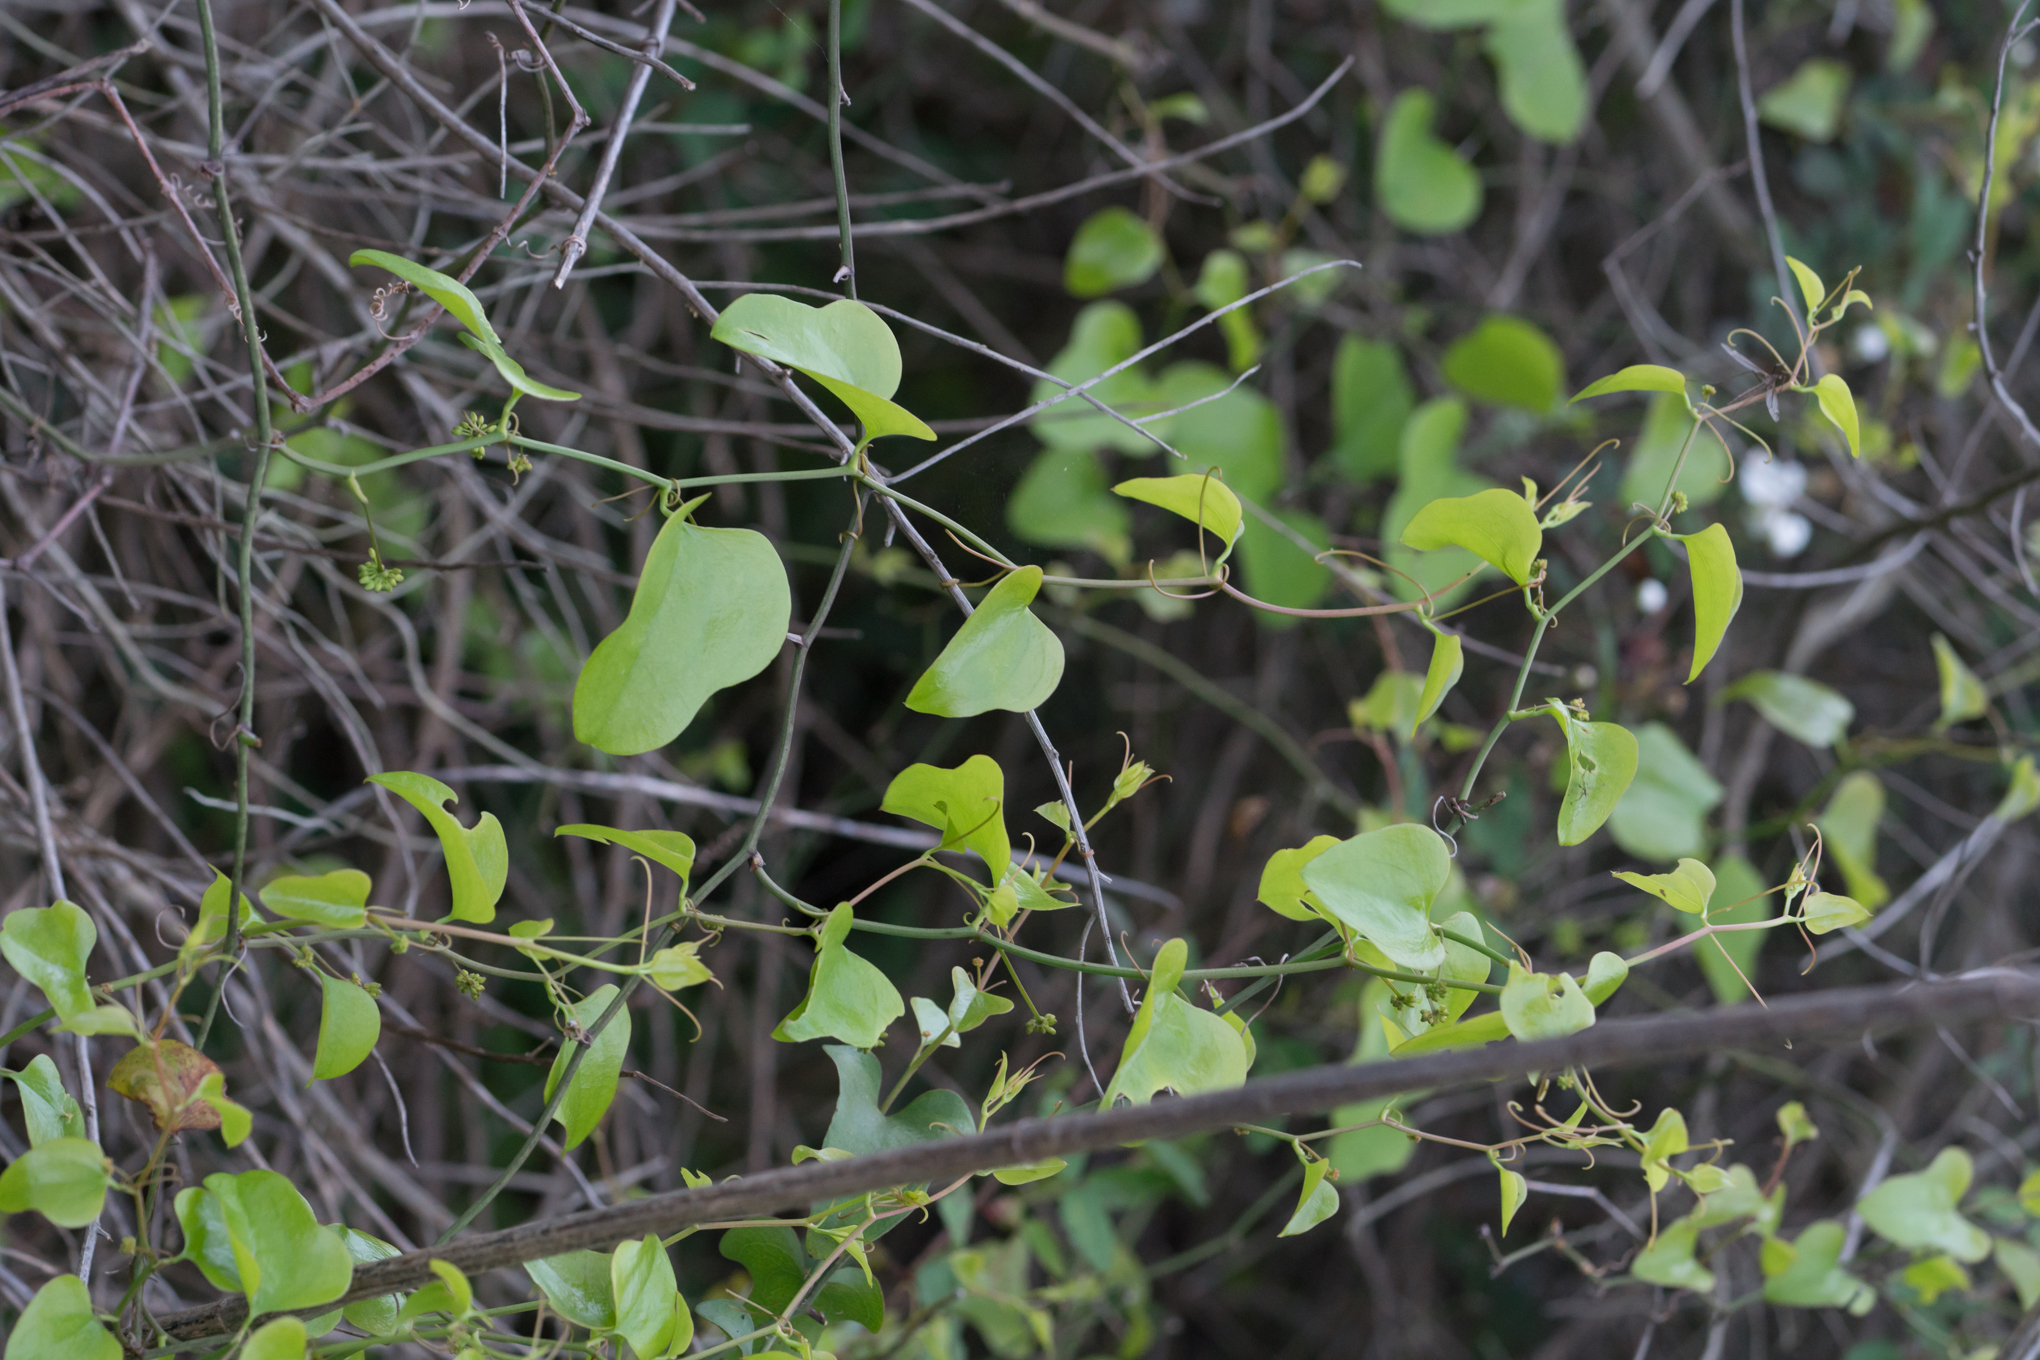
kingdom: Plantae
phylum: Tracheophyta
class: Liliopsida
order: Liliales
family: Smilacaceae
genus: Smilax
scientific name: Smilax bona-nox
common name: Catbrier
